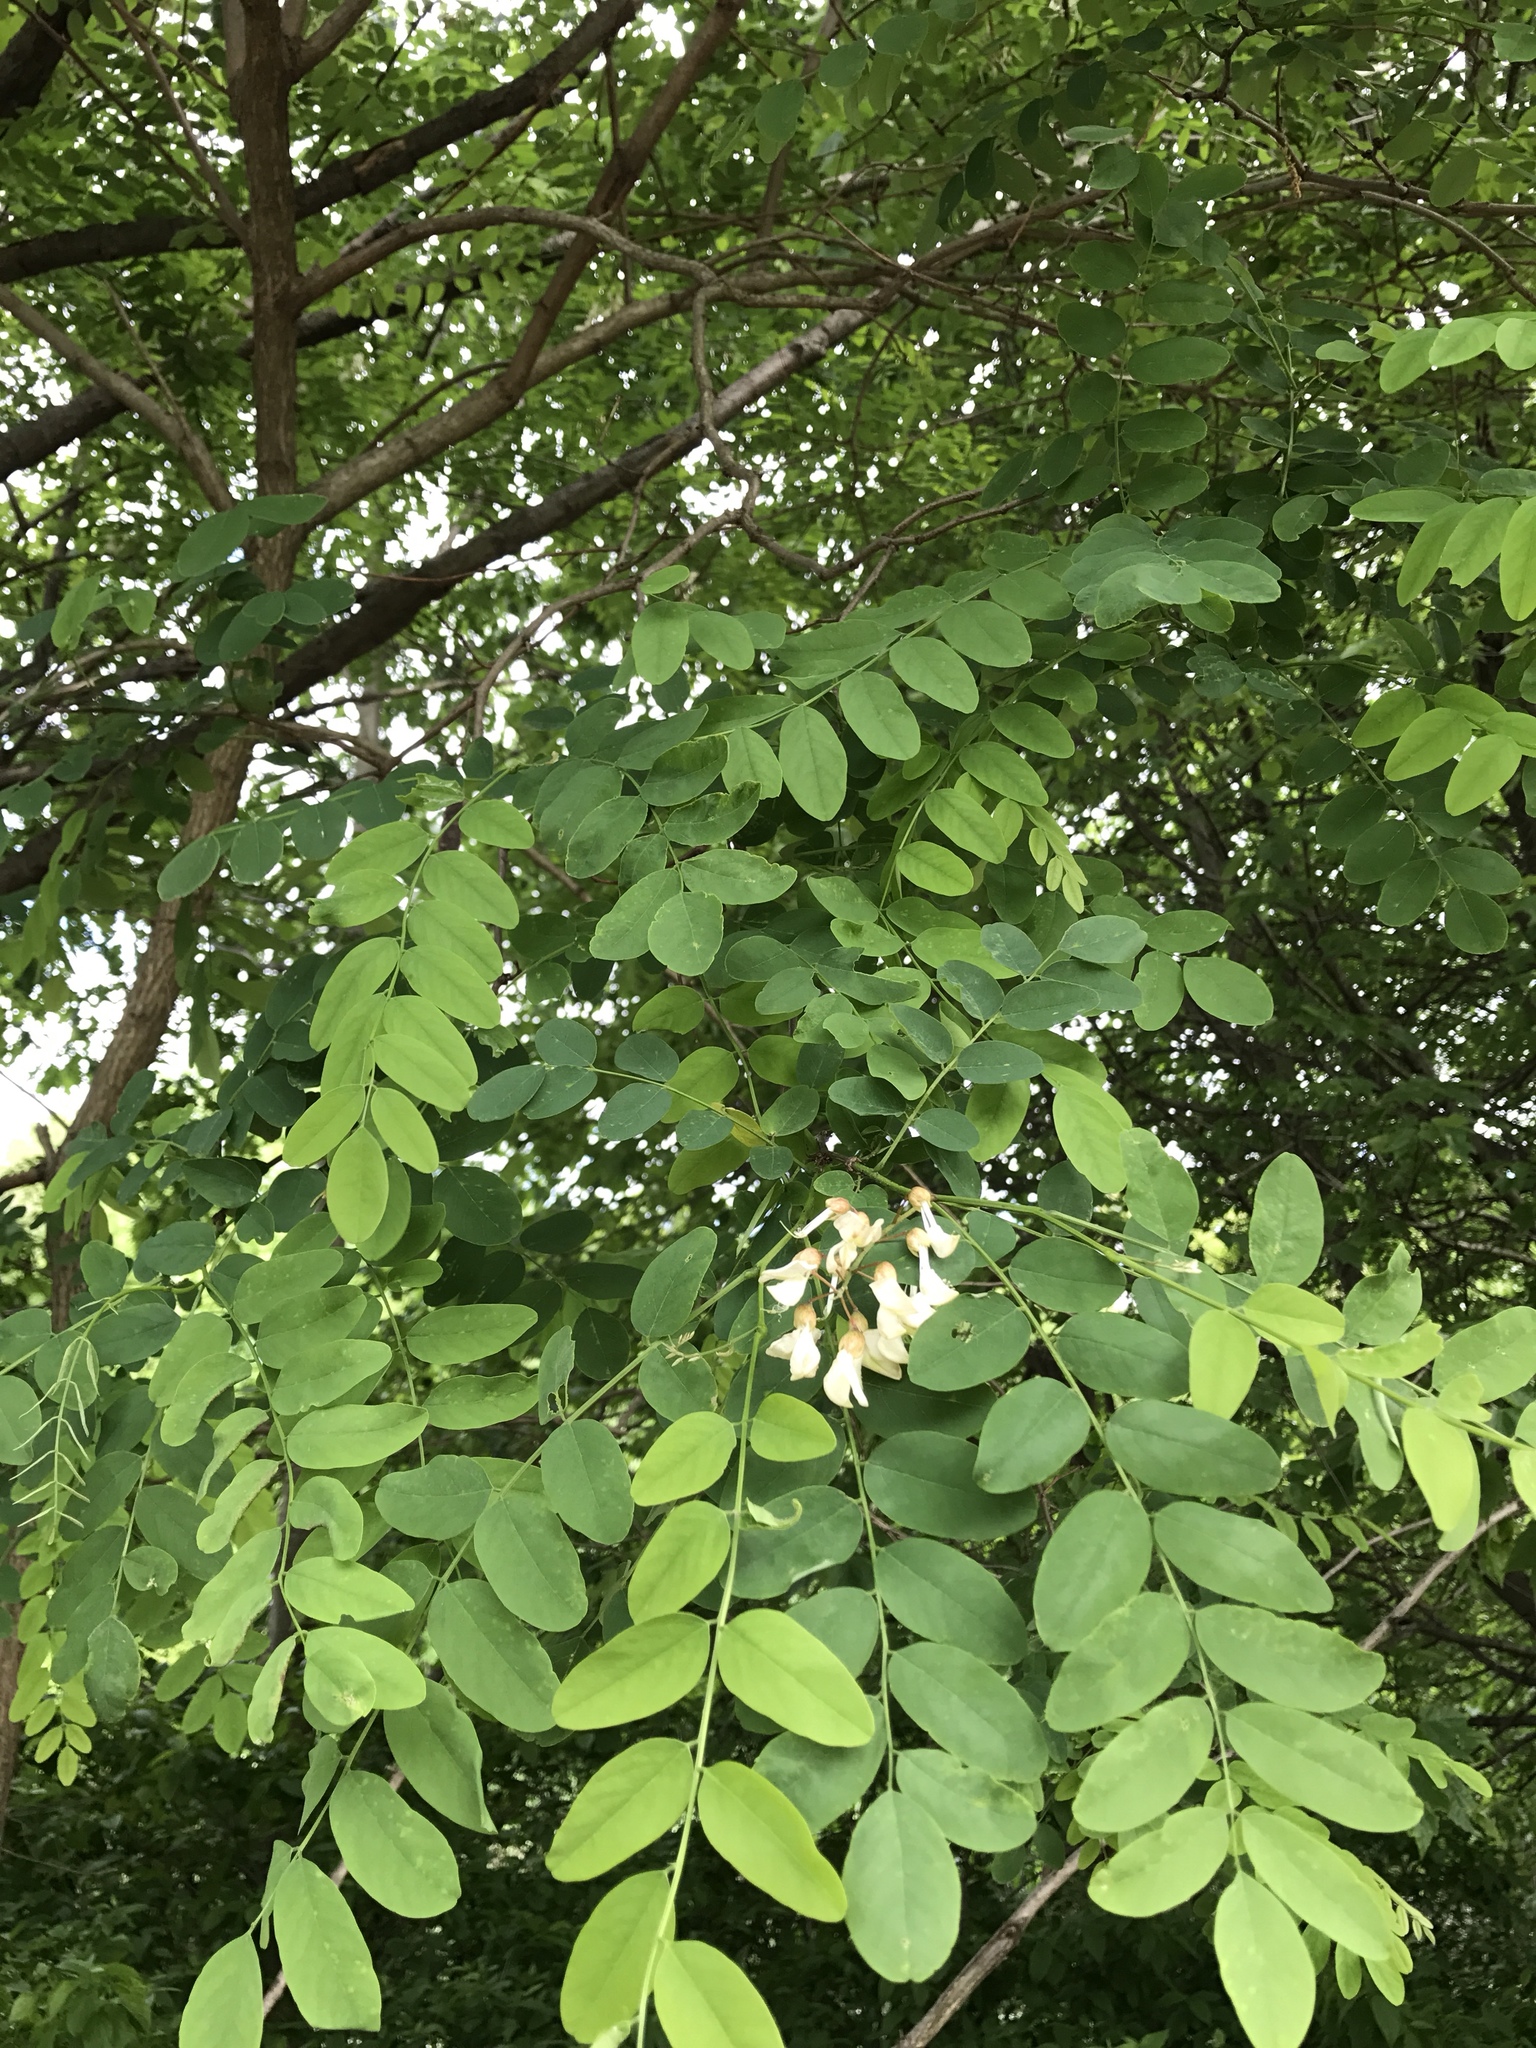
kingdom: Plantae
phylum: Tracheophyta
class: Magnoliopsida
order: Fabales
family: Fabaceae
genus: Robinia
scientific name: Robinia pseudoacacia
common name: Black locust
